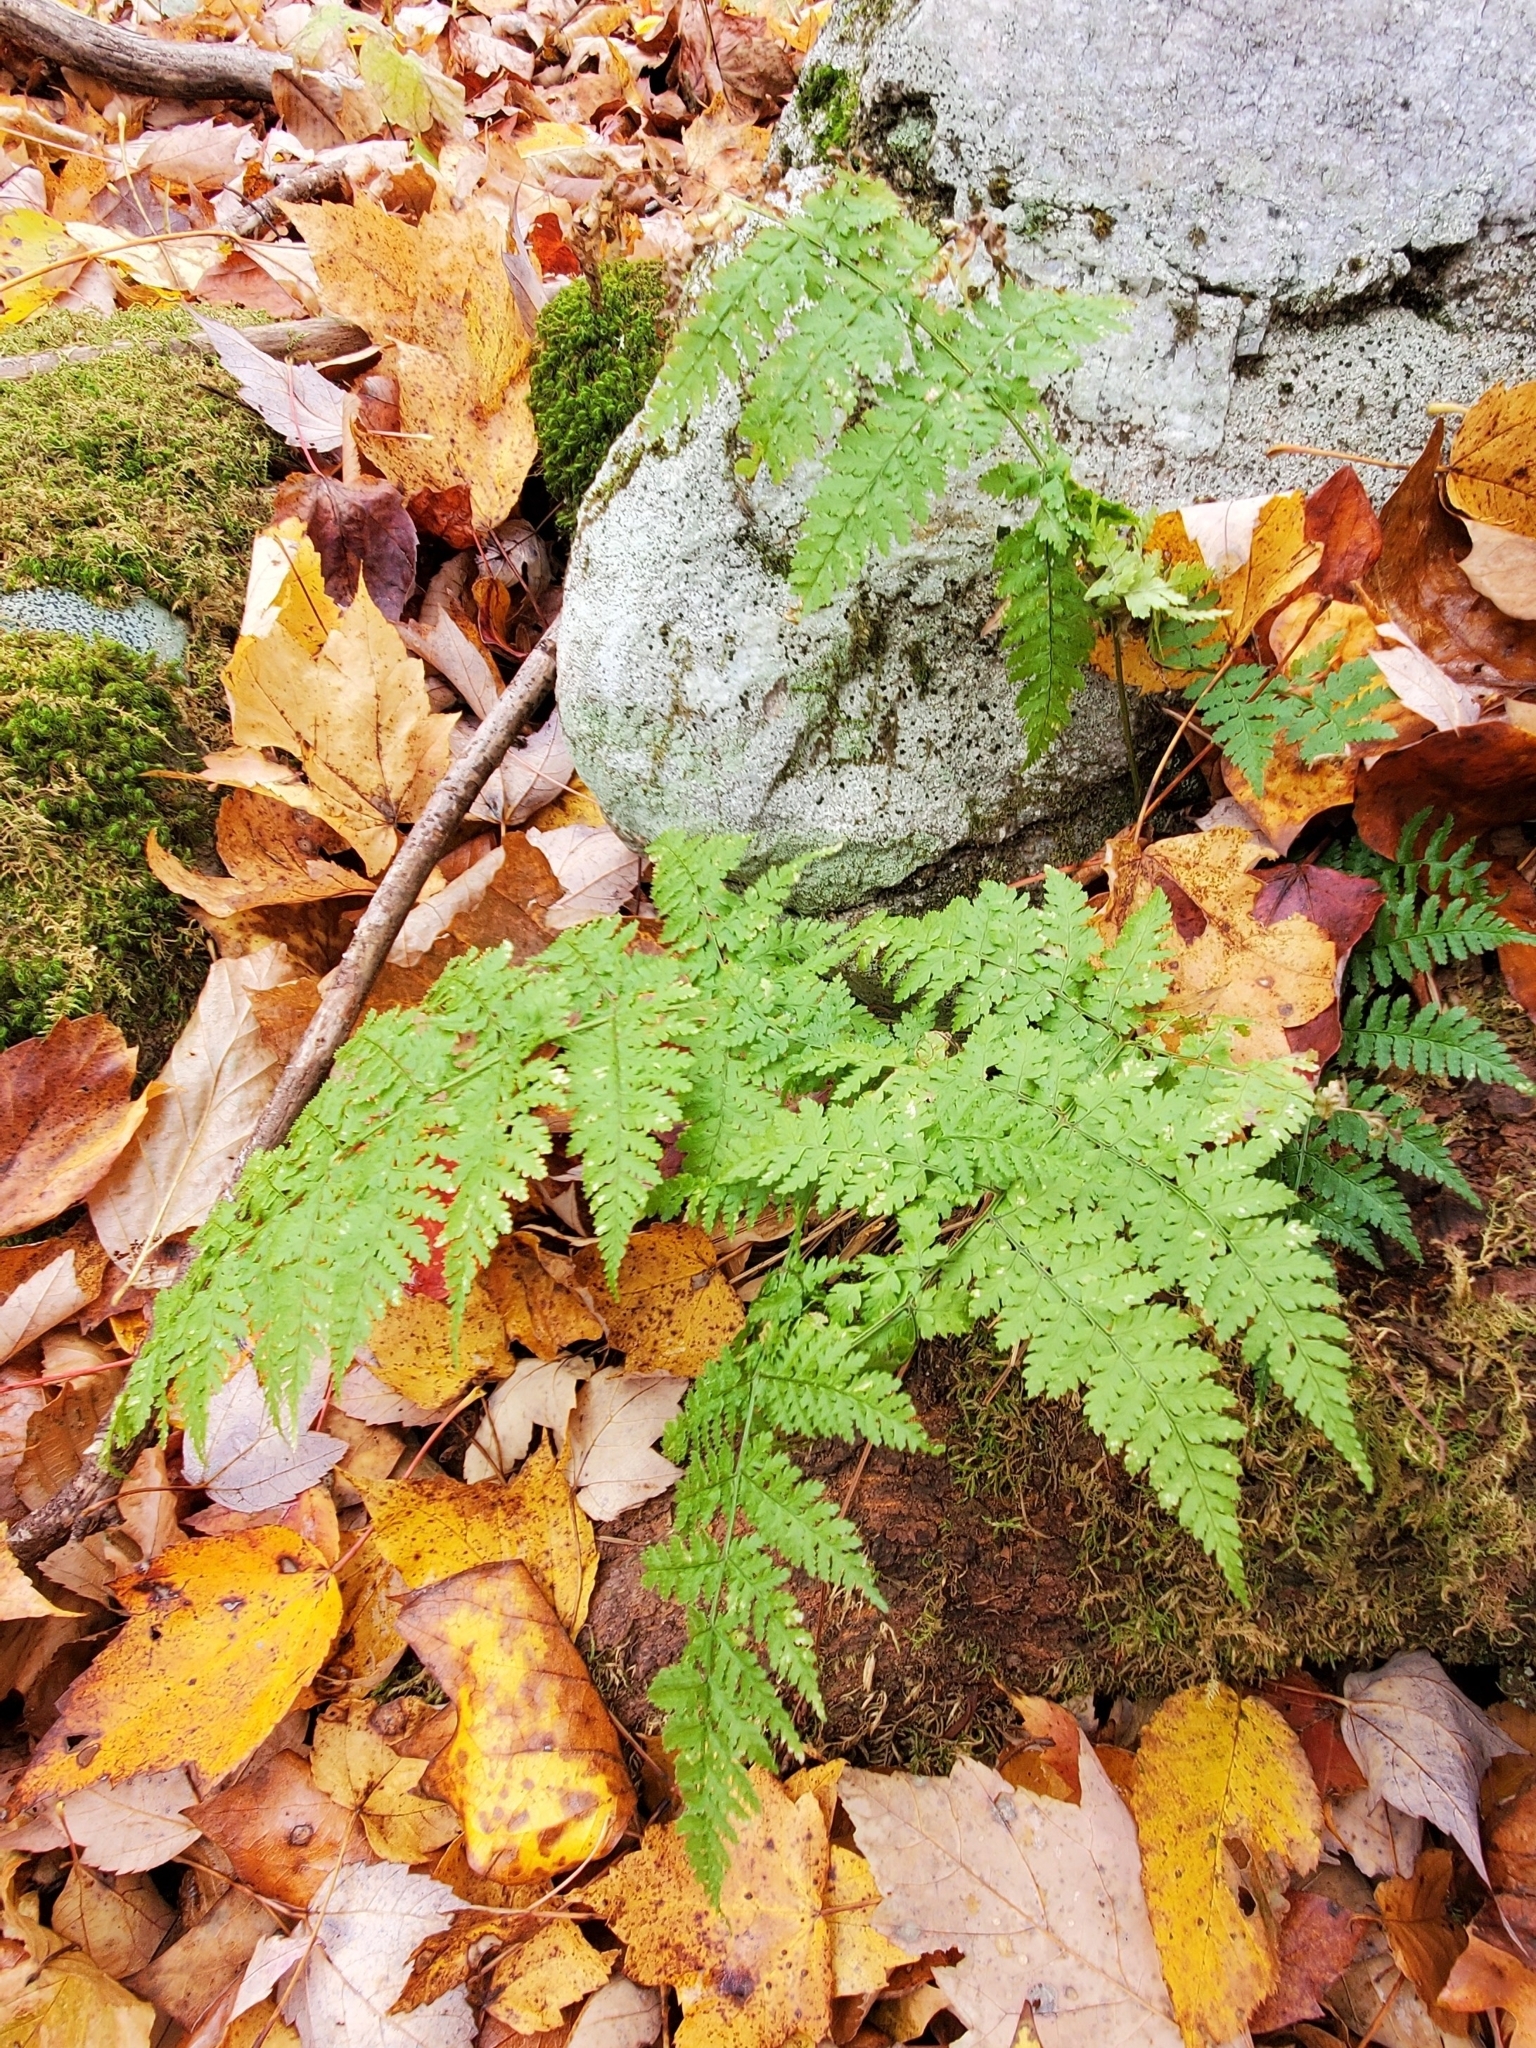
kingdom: Plantae
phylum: Tracheophyta
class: Polypodiopsida
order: Polypodiales
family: Dryopteridaceae
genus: Dryopteris
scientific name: Dryopteris intermedia
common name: Evergreen wood fern
